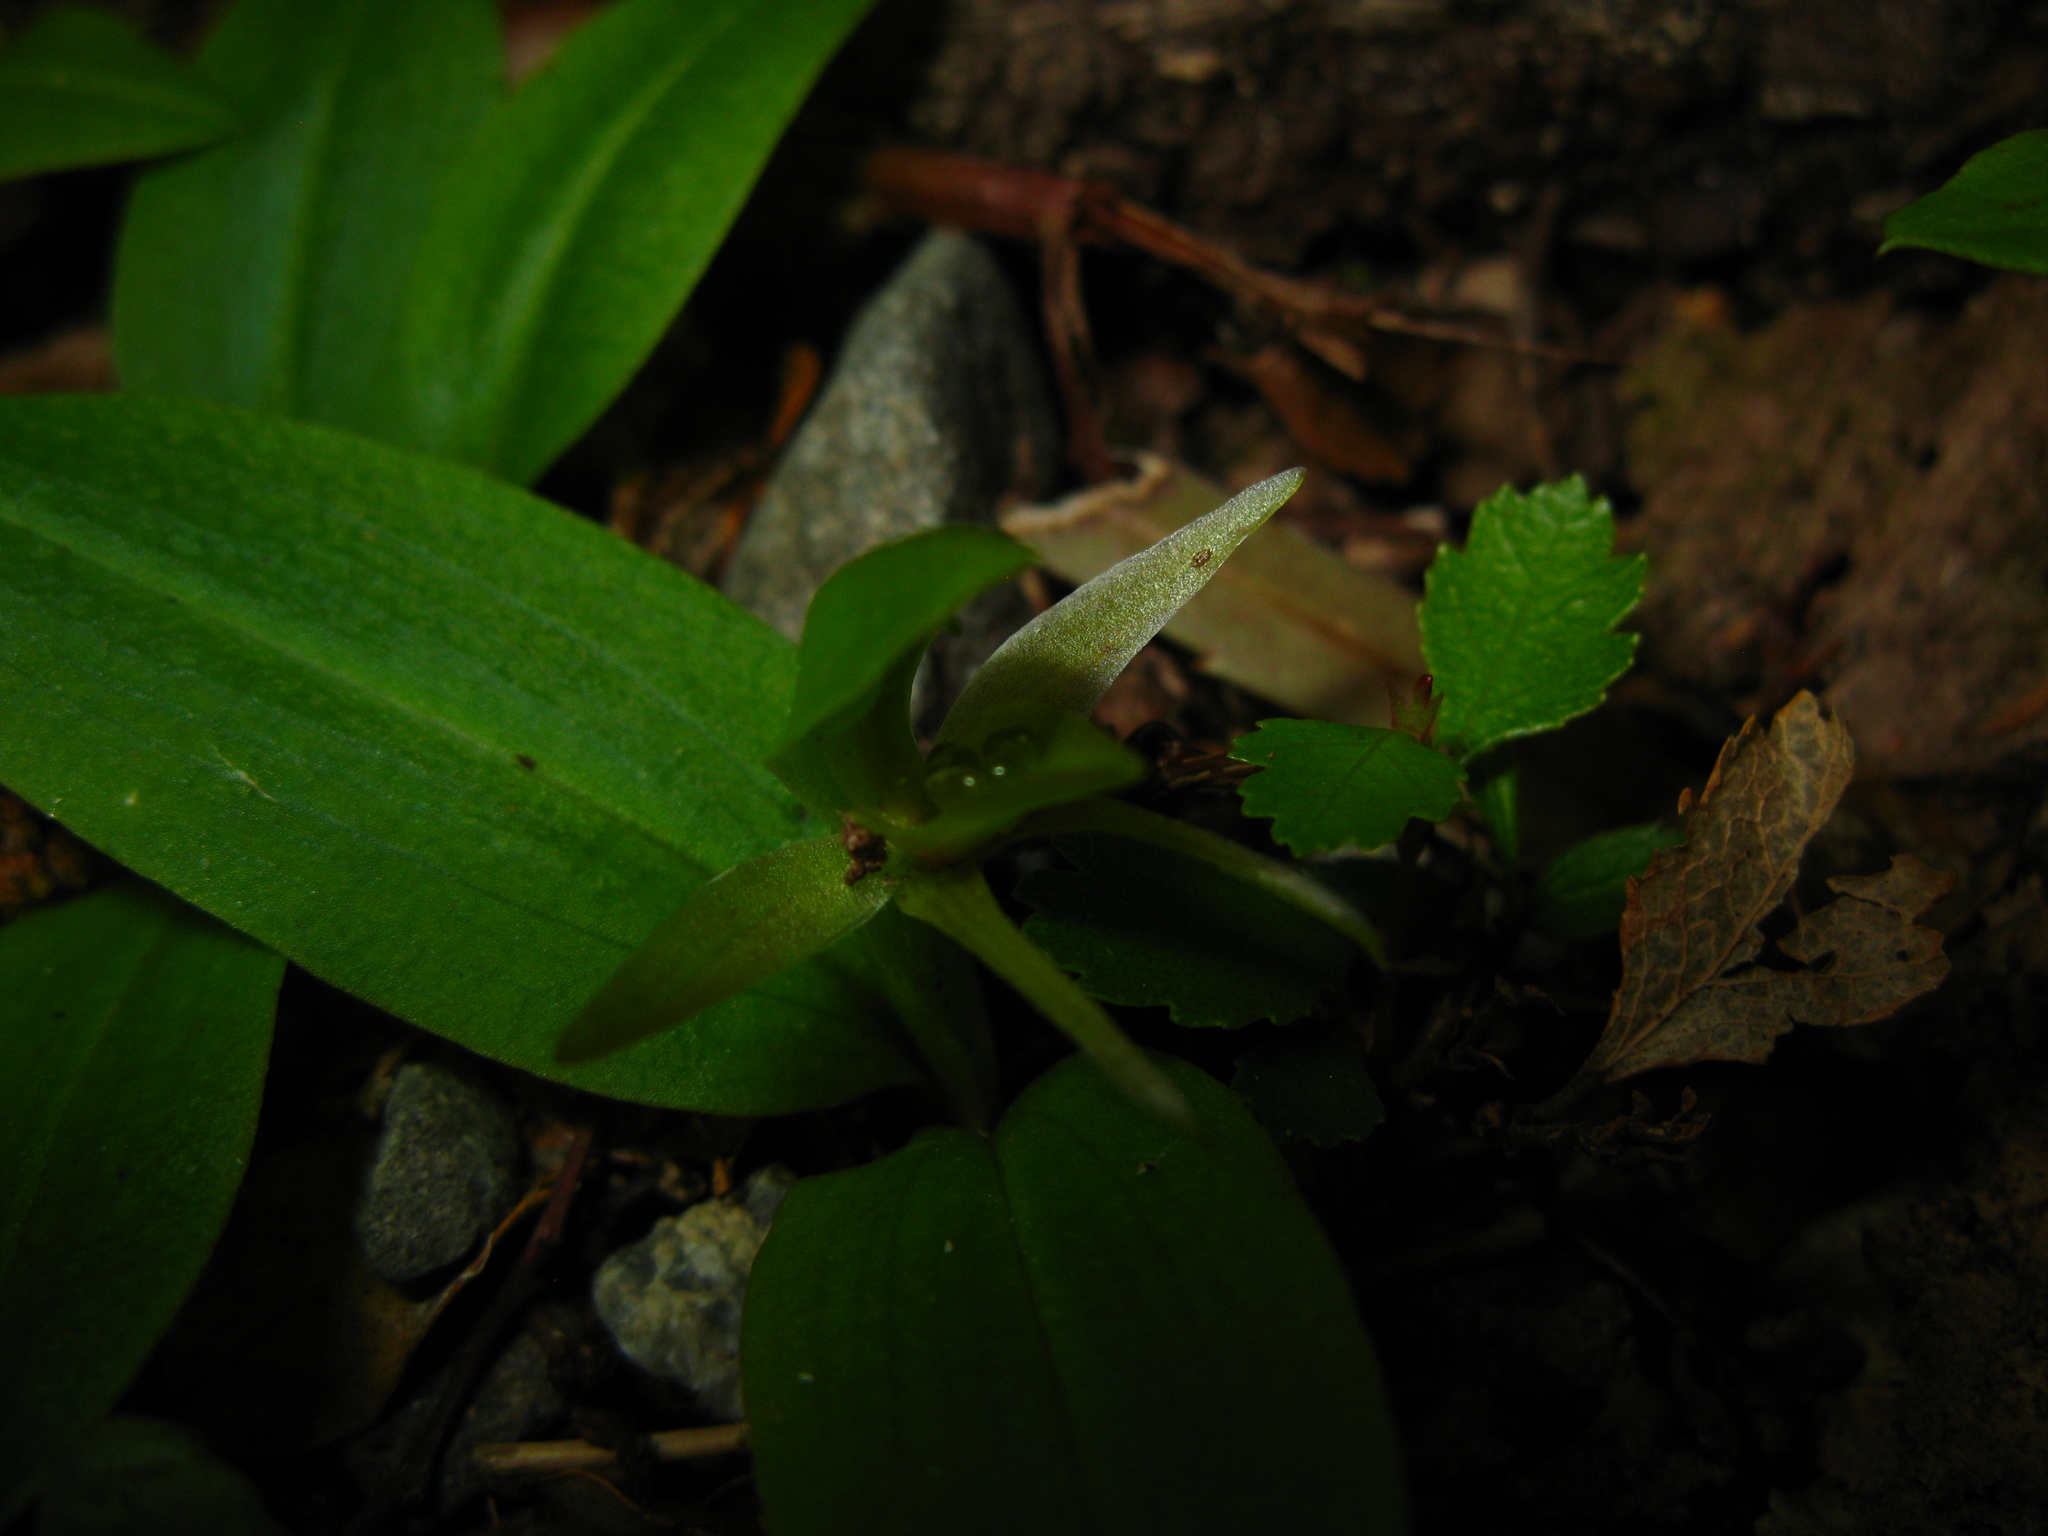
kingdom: Plantae
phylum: Tracheophyta
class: Liliopsida
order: Asparagales
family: Orchidaceae
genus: Chiloglottis
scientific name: Chiloglottis cornuta
